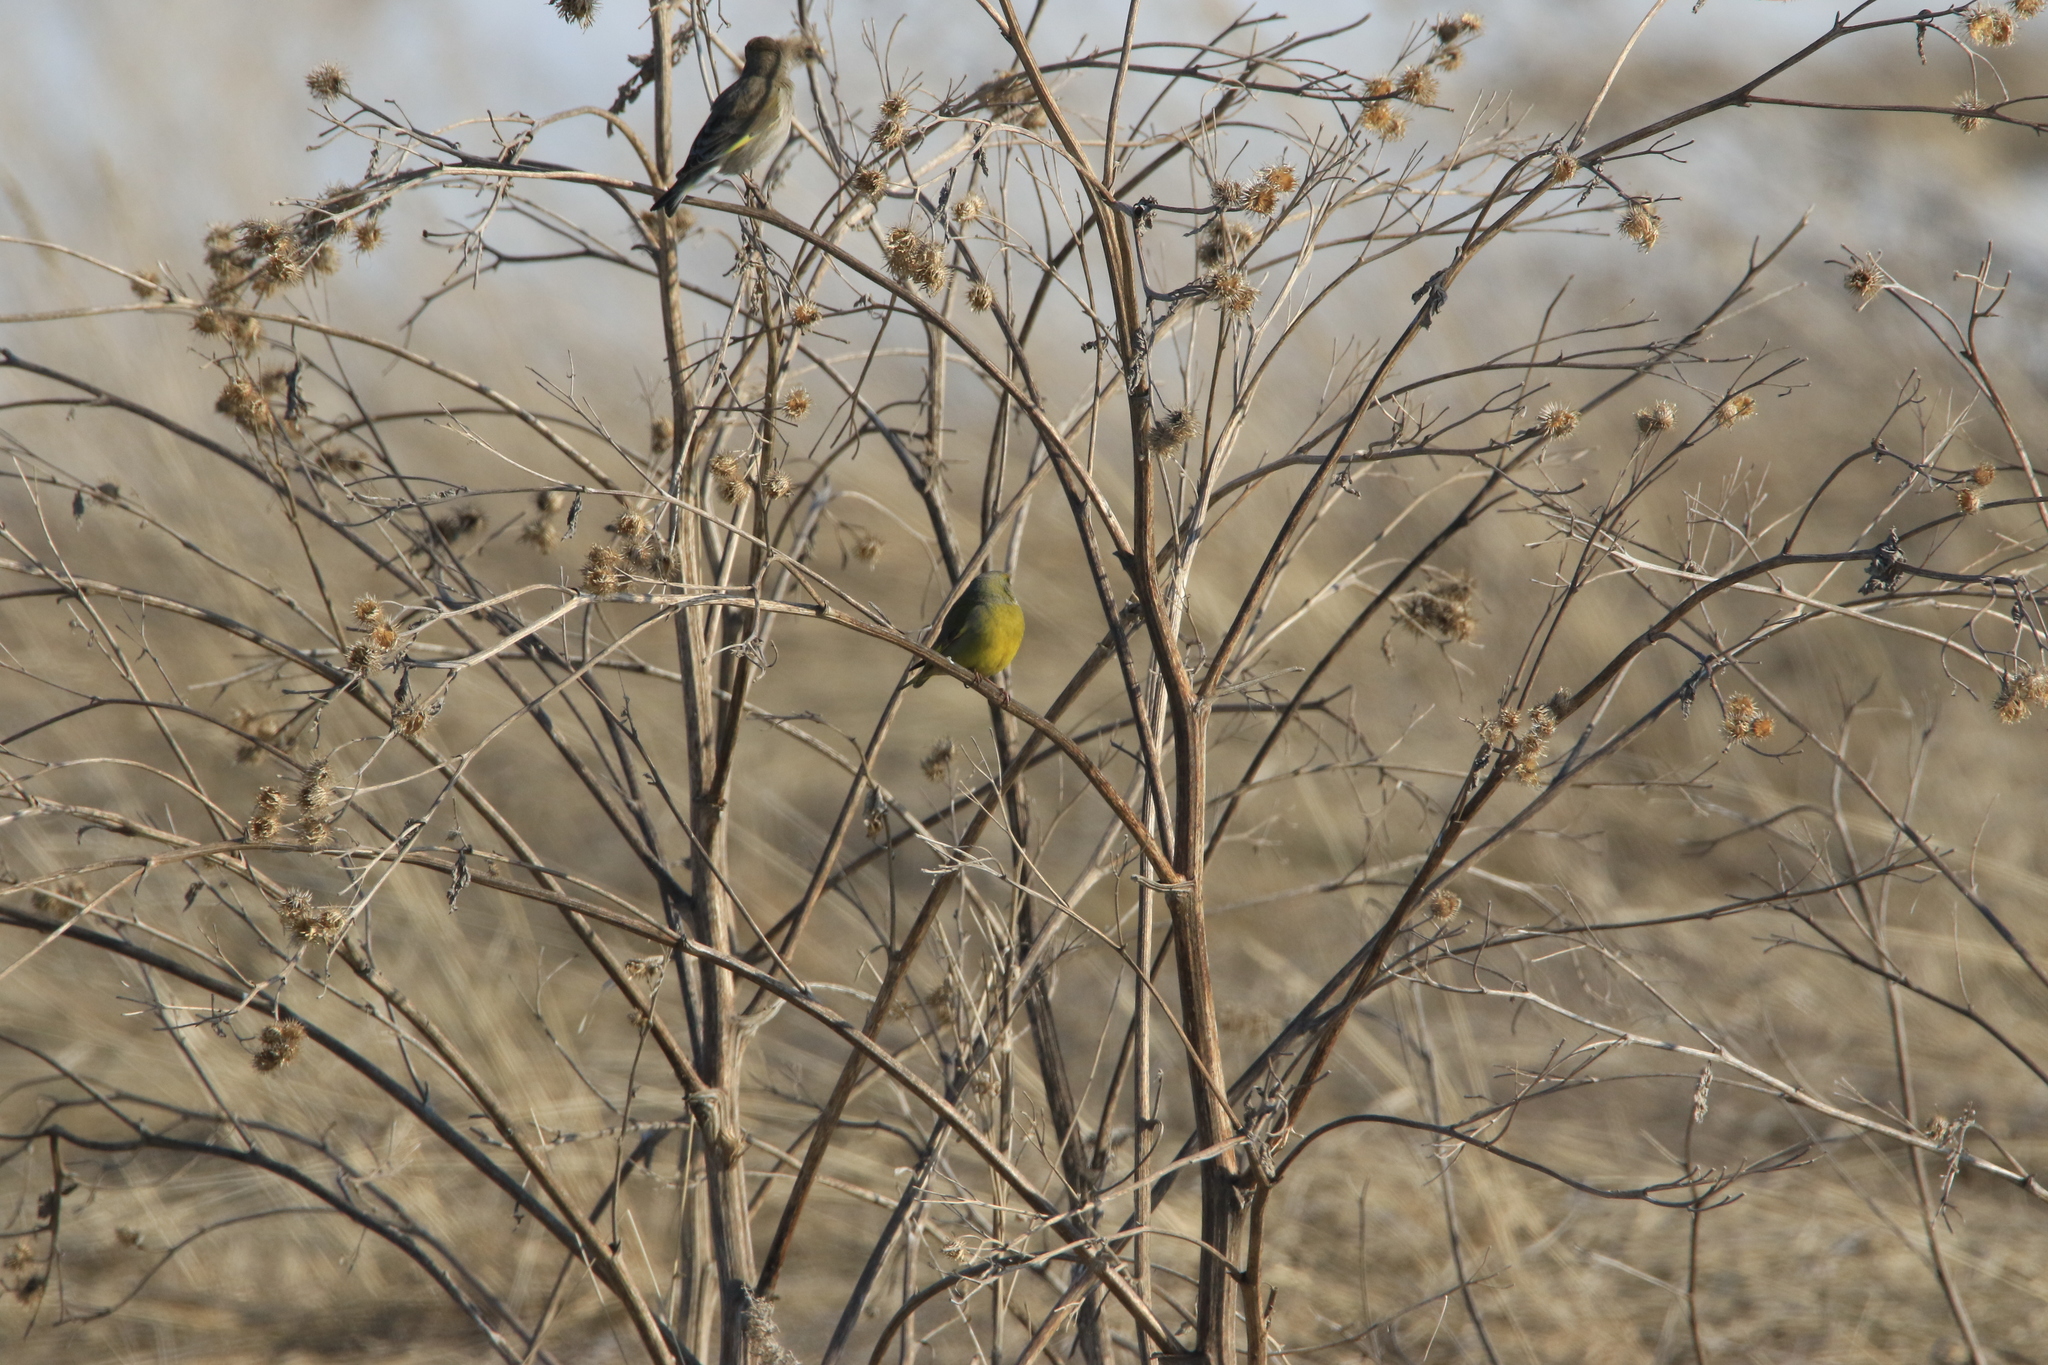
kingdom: Plantae
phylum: Tracheophyta
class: Liliopsida
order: Poales
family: Poaceae
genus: Chloris
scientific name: Chloris chloris
